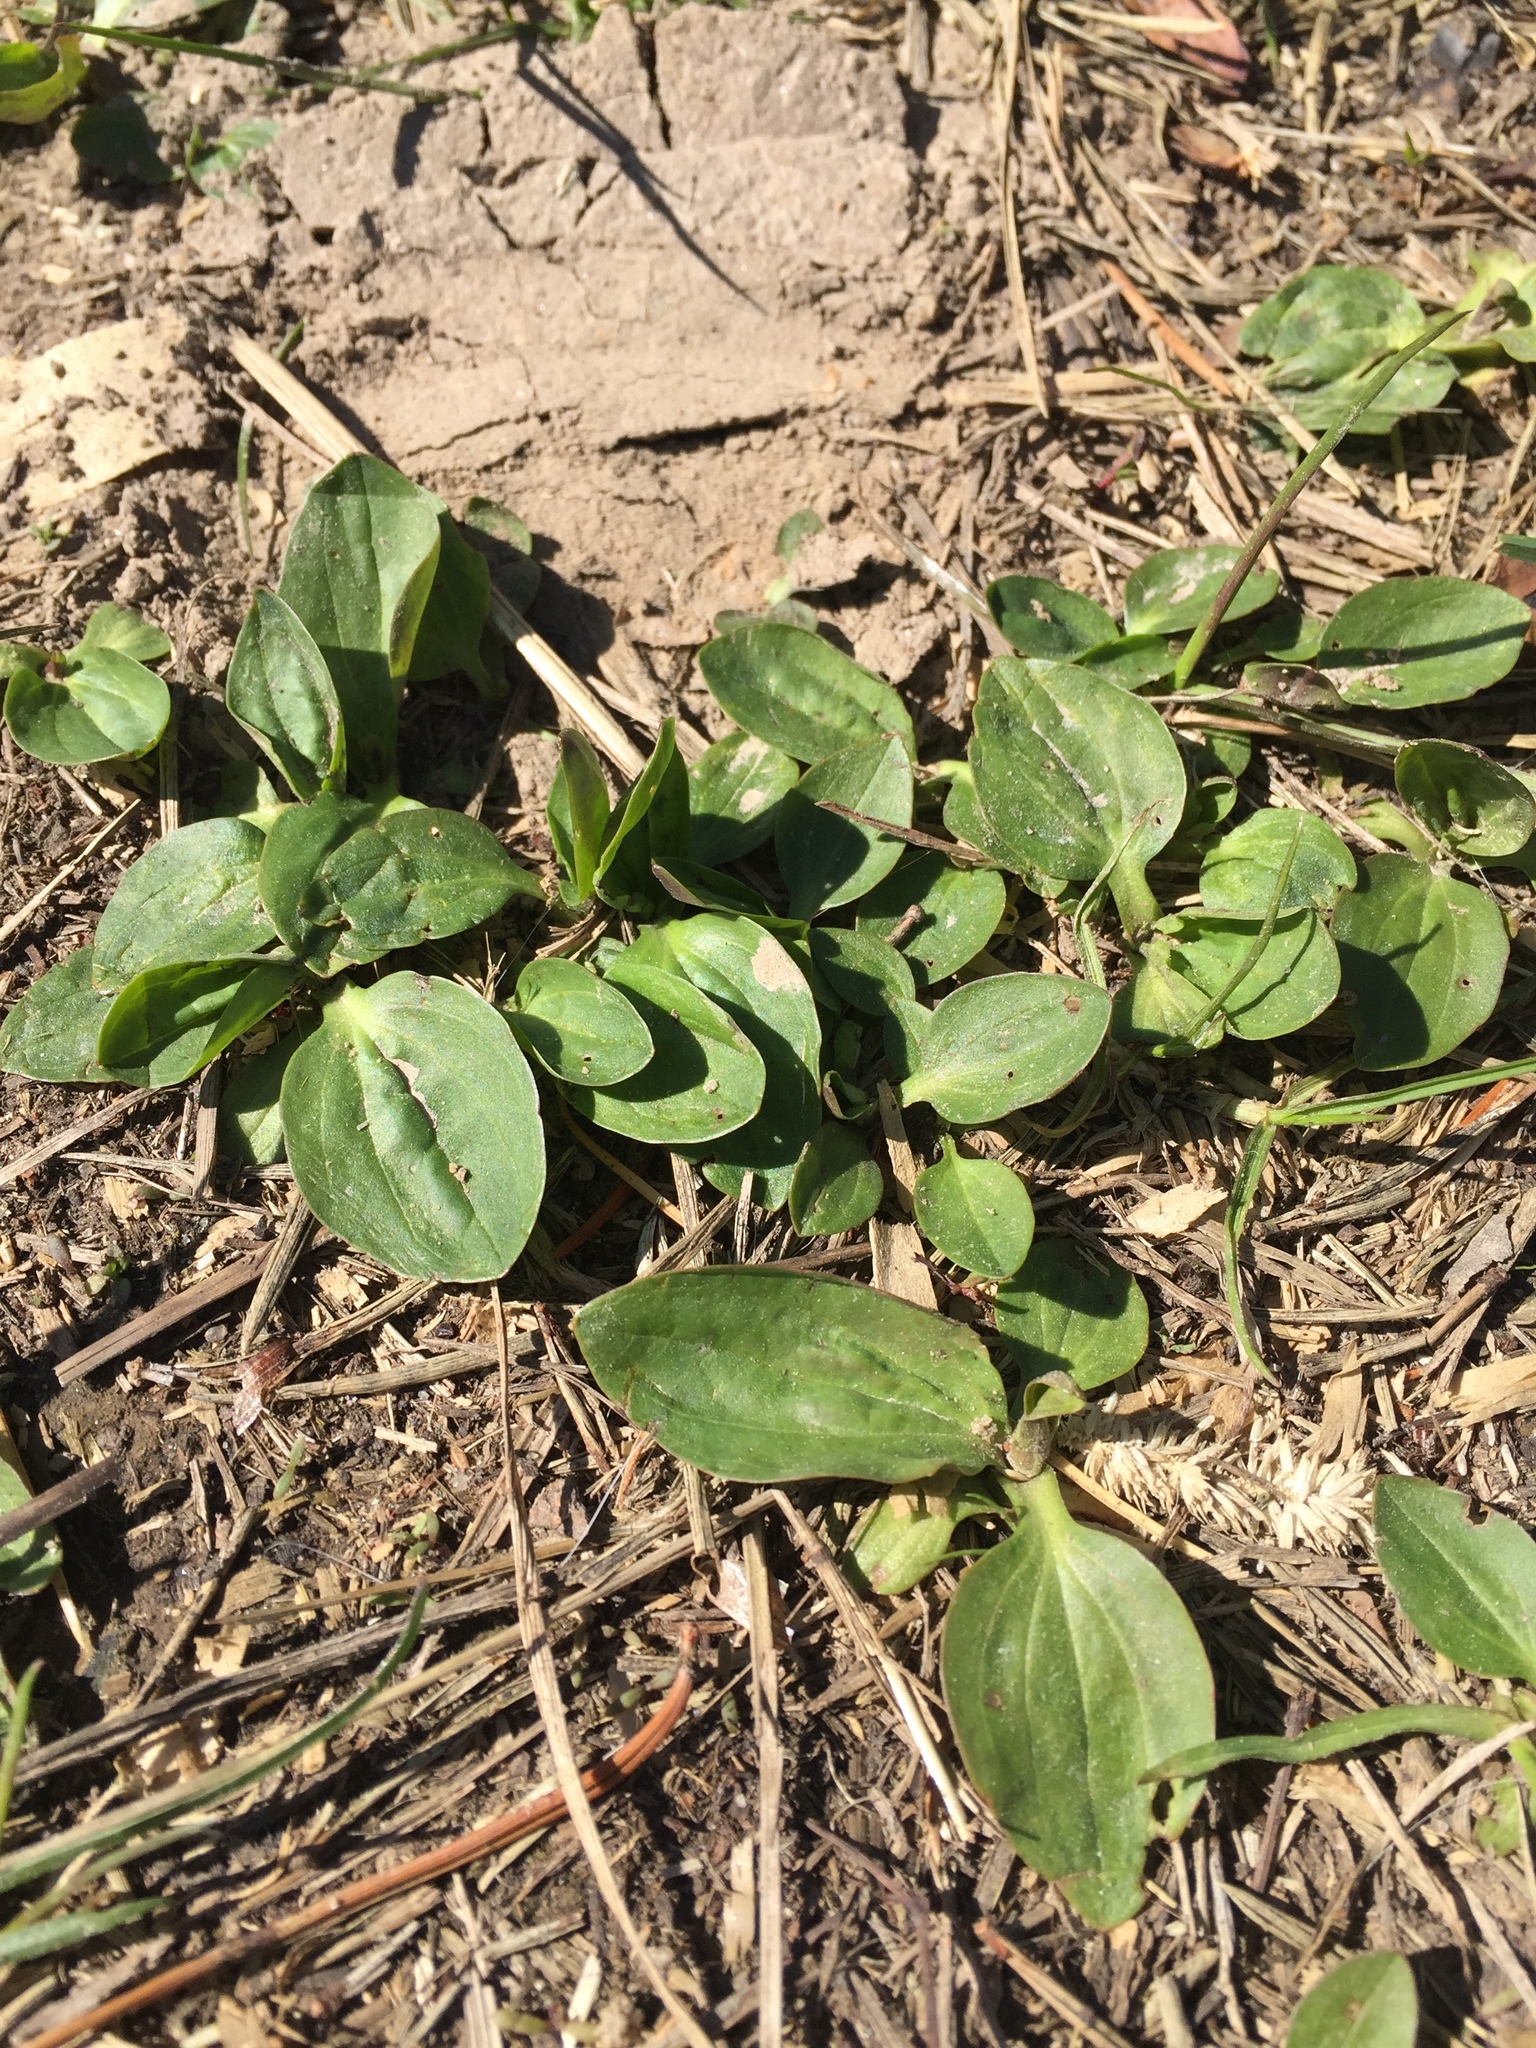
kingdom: Plantae
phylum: Tracheophyta
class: Magnoliopsida
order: Lamiales
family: Plantaginaceae
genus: Plantago
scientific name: Plantago major
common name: Common plantain
